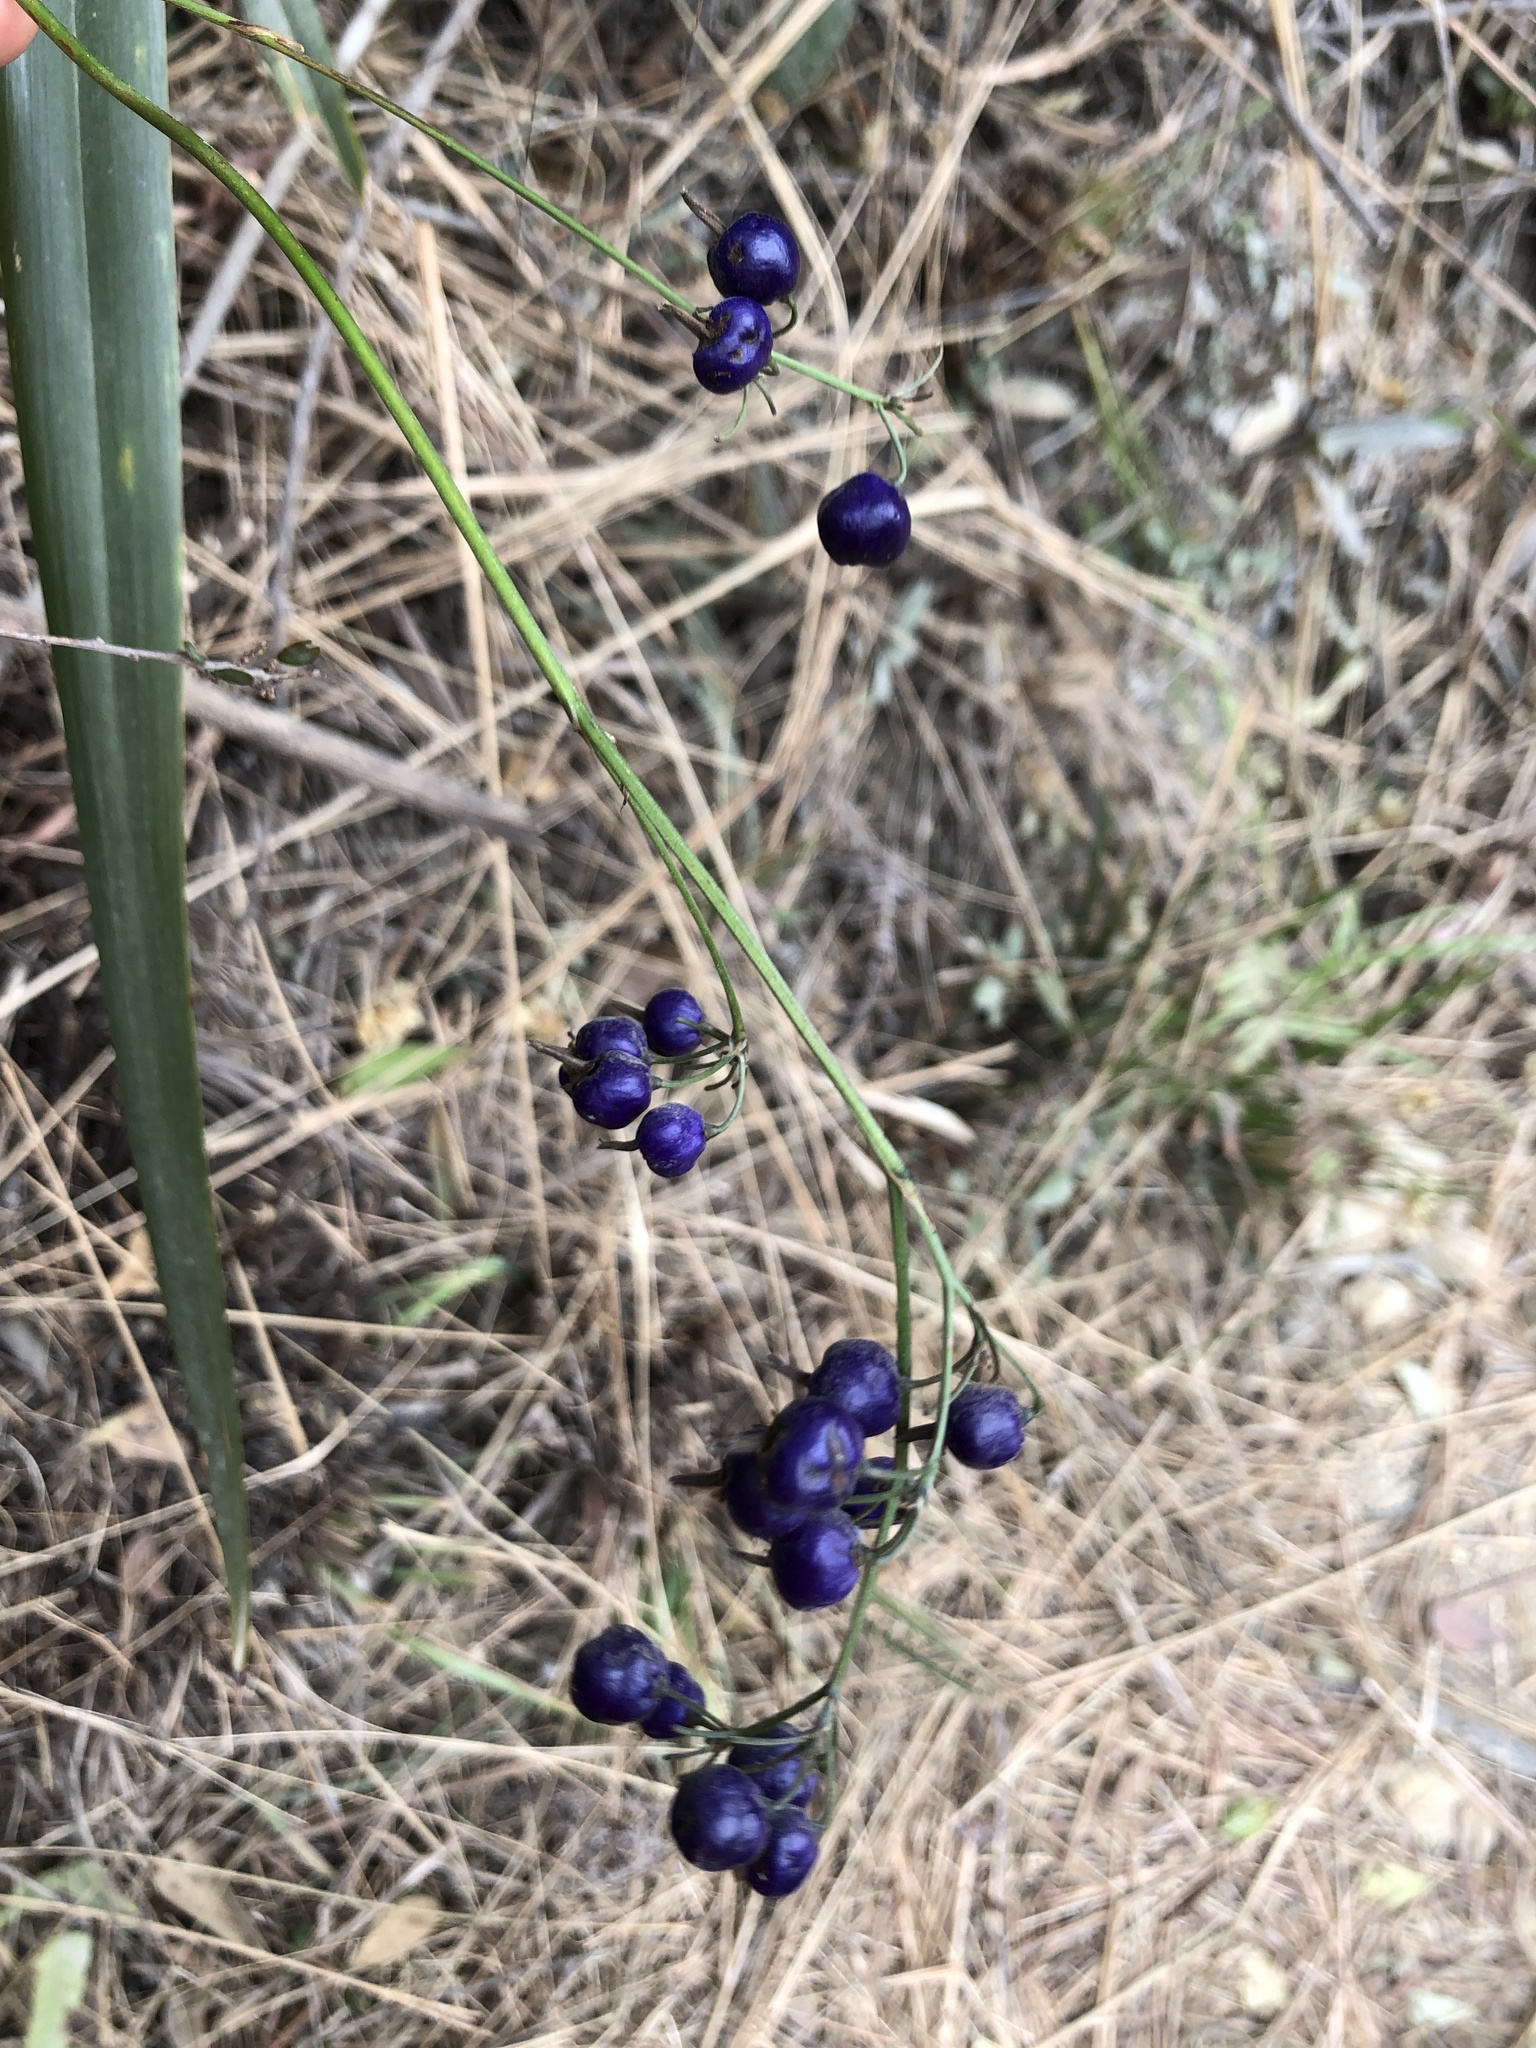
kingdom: Plantae
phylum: Tracheophyta
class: Liliopsida
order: Asparagales
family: Asphodelaceae
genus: Dianella
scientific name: Dianella ensifolia
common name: New zealand lilyplant
